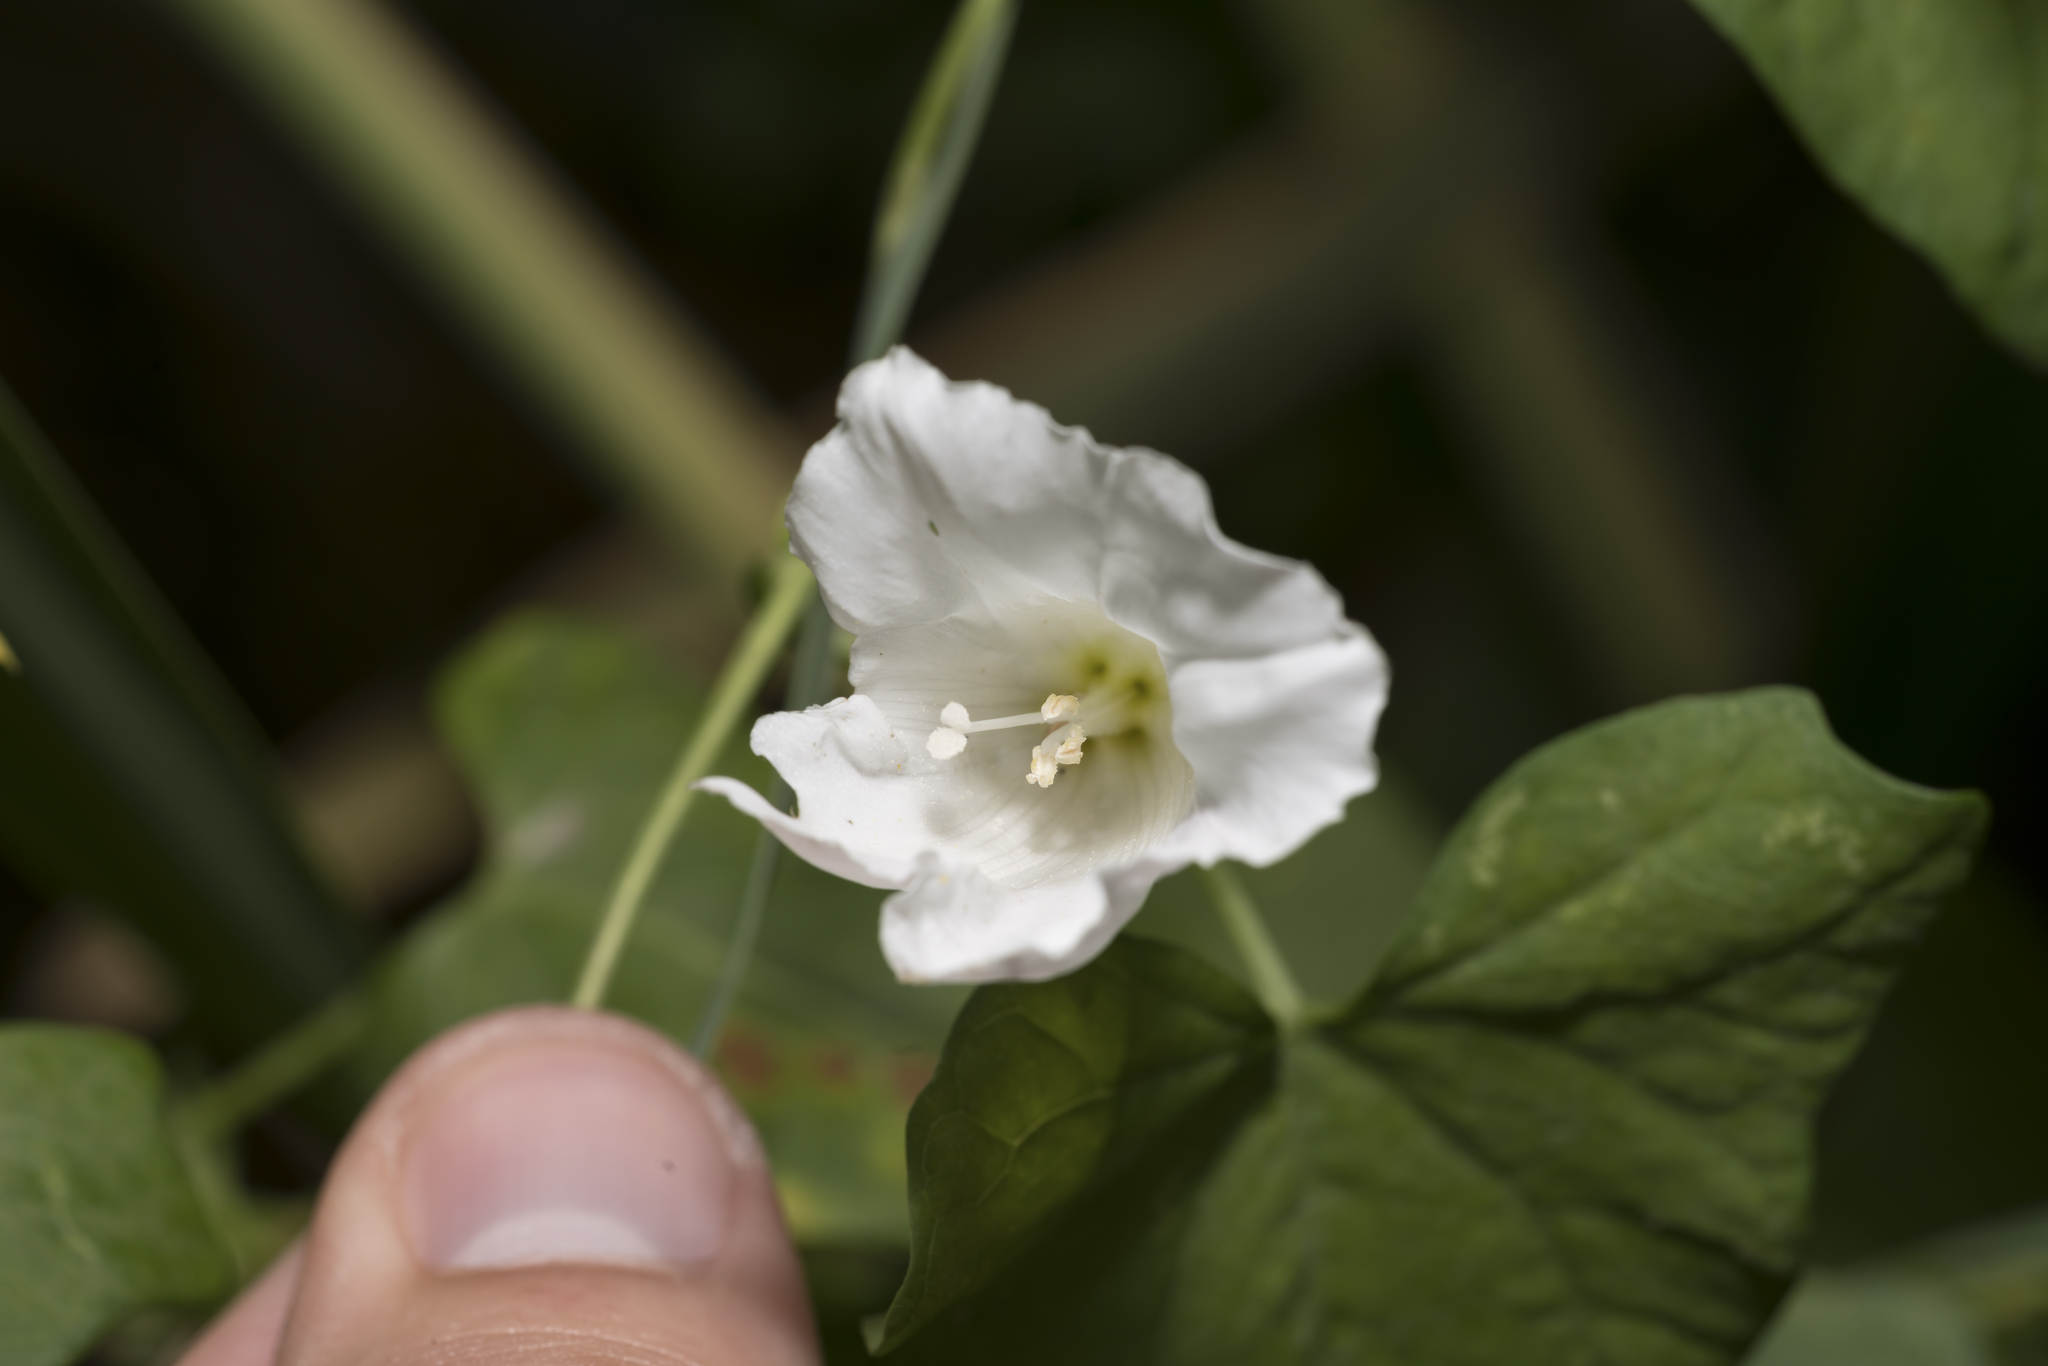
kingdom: Plantae
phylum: Tracheophyta
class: Magnoliopsida
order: Solanales
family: Convolvulaceae
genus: Calystegia
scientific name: Calystegia sepium
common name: Hedge bindweed
